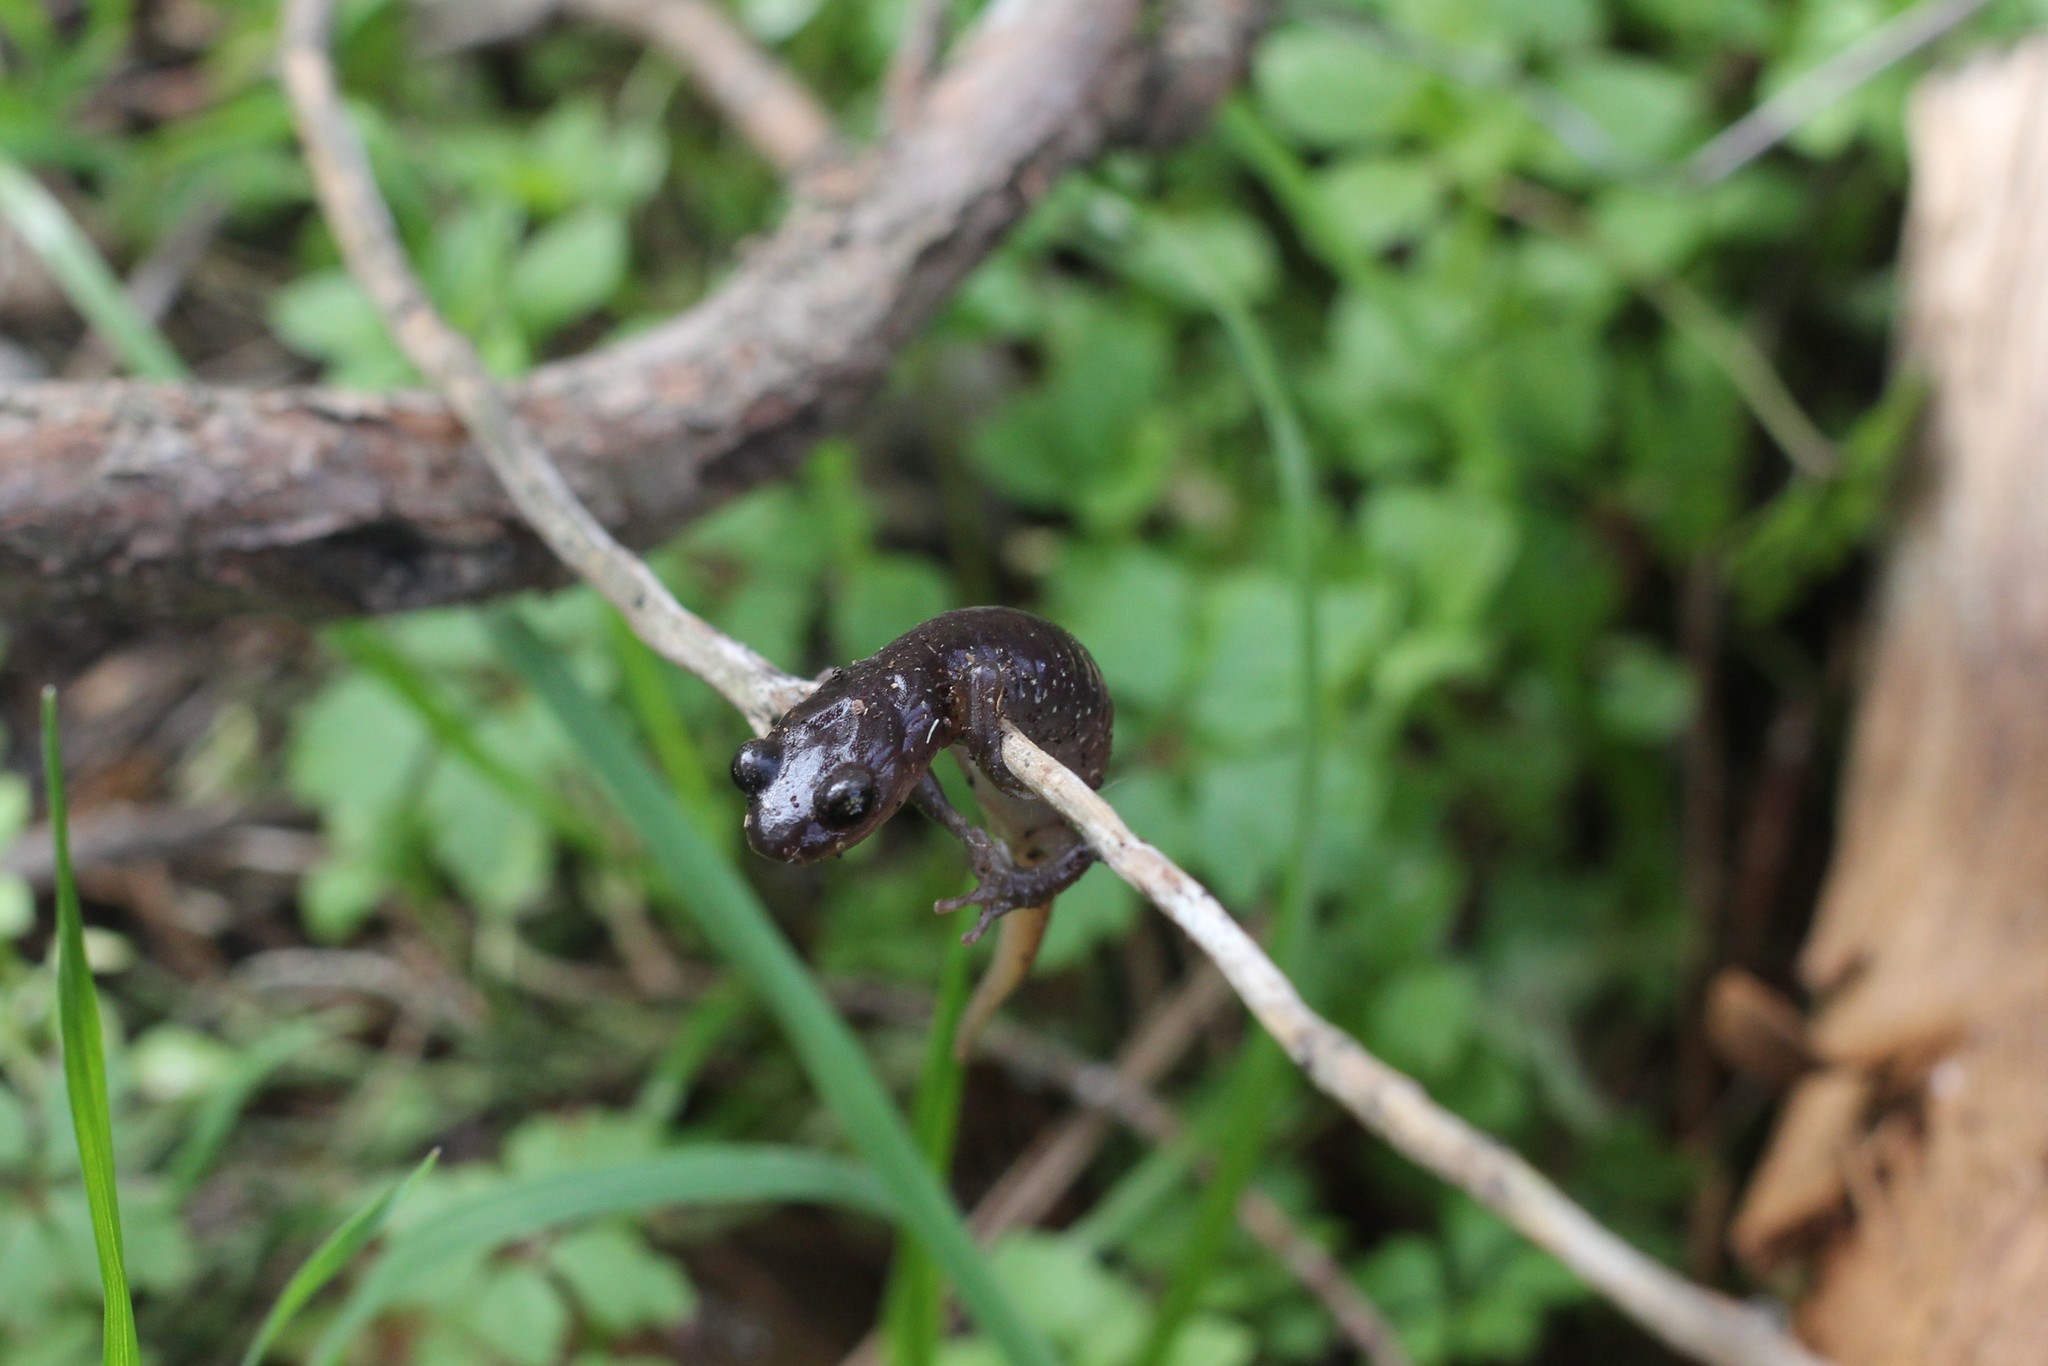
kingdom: Animalia
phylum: Chordata
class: Amphibia
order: Caudata
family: Plethodontidae
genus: Aneides
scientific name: Aneides lugubris
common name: Arboreal salamander
